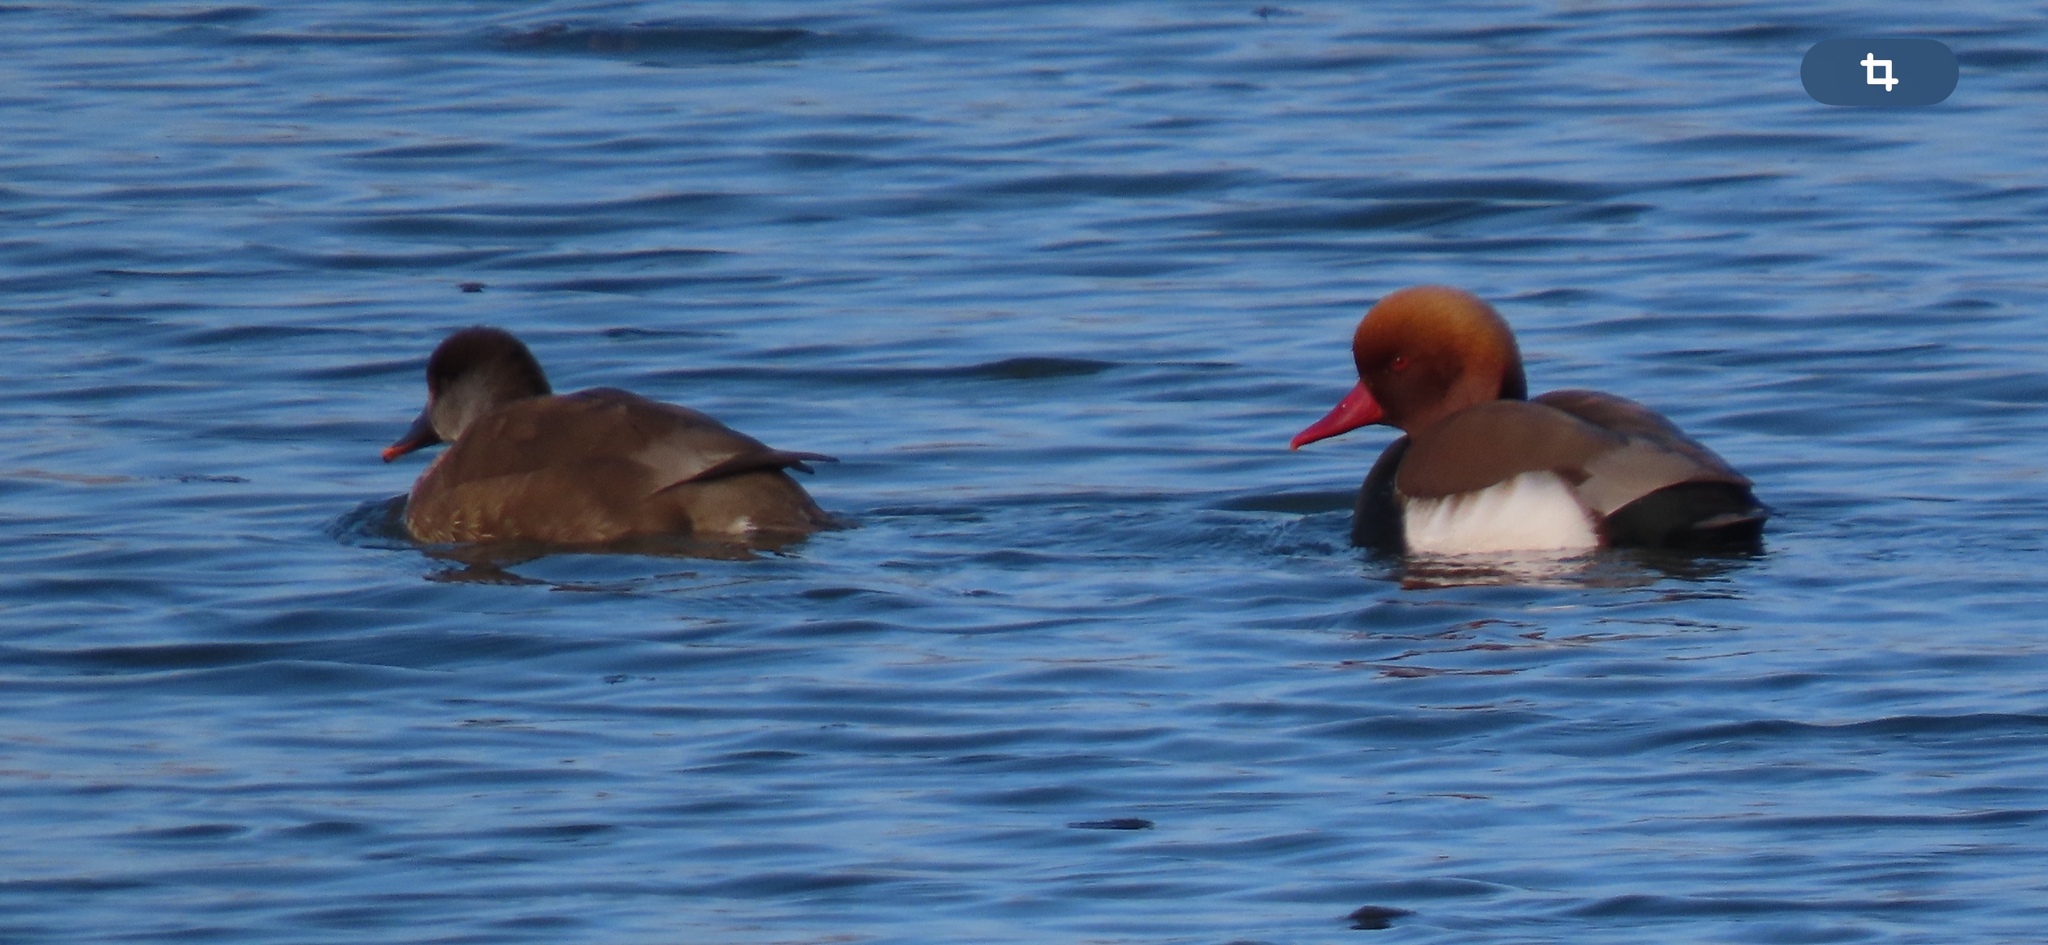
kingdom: Animalia
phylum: Chordata
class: Aves
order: Anseriformes
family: Anatidae
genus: Netta
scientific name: Netta rufina
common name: Red-crested pochard
